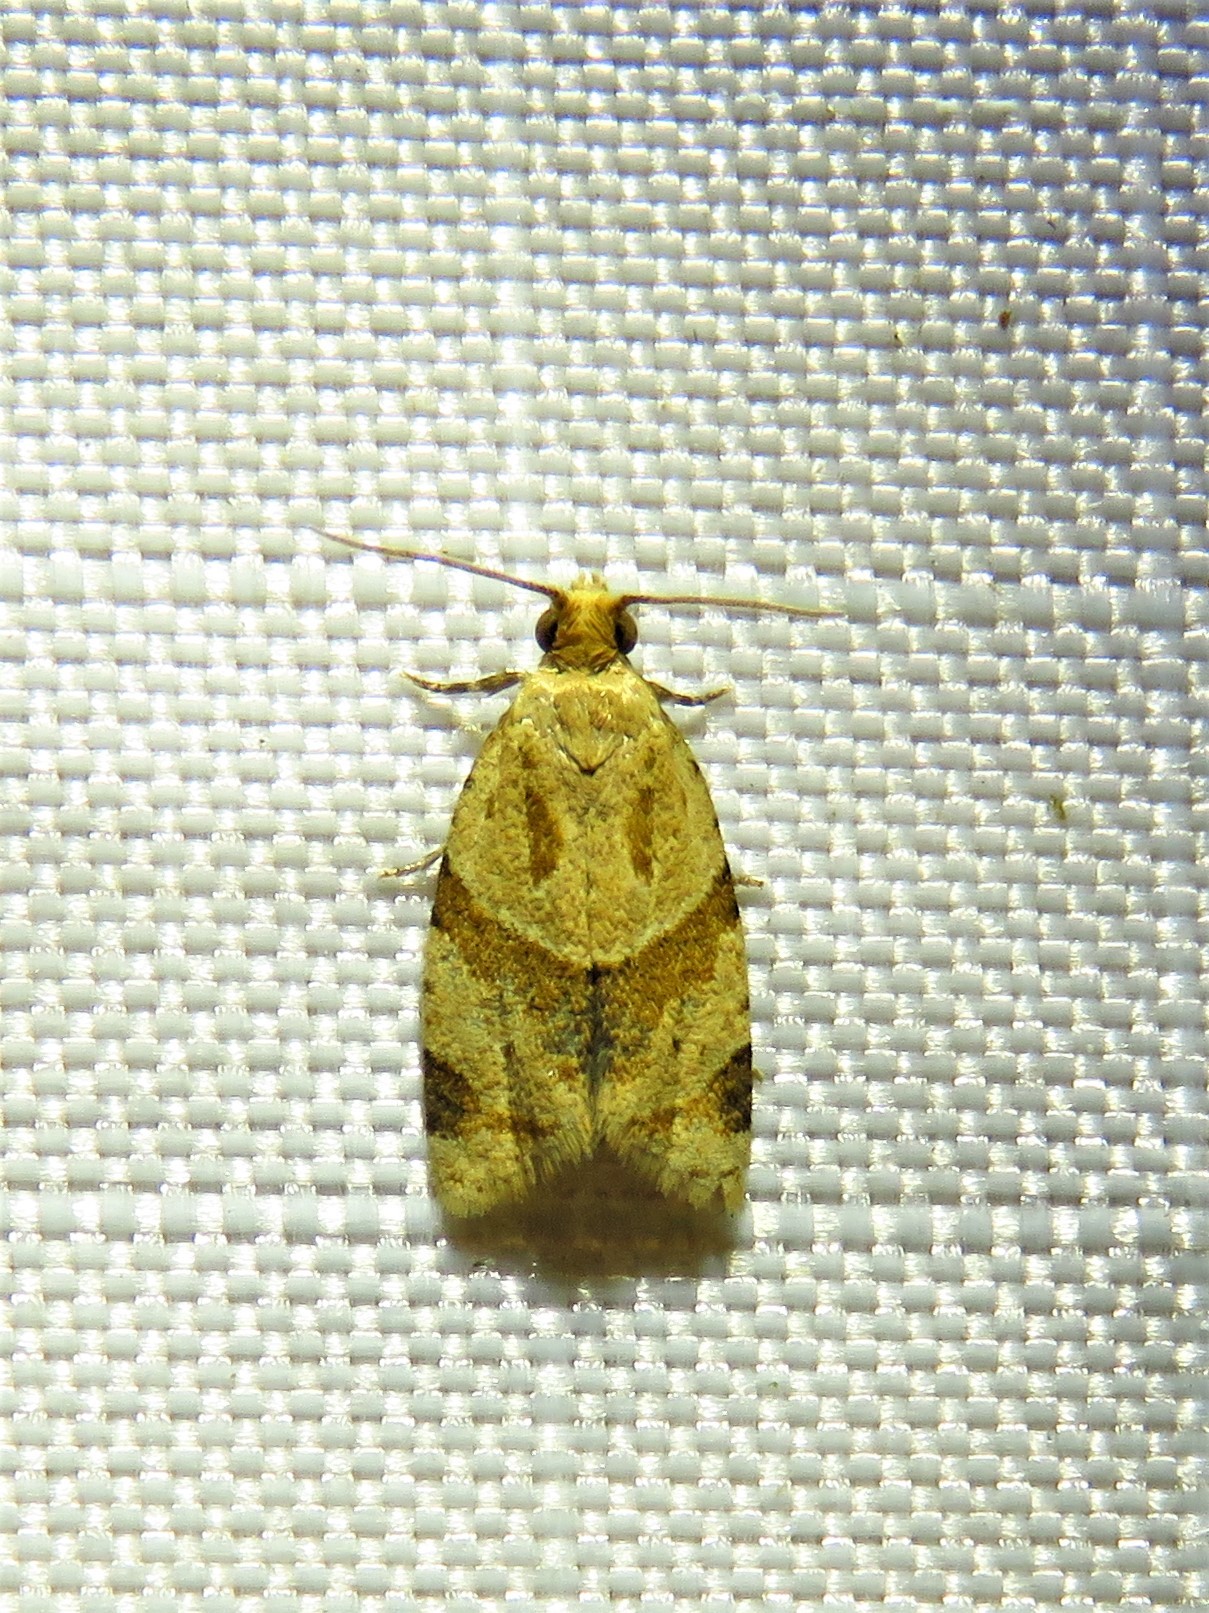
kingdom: Animalia
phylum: Arthropoda
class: Insecta
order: Lepidoptera
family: Tortricidae
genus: Clepsis
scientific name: Clepsis peritana
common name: Garden tortrix
